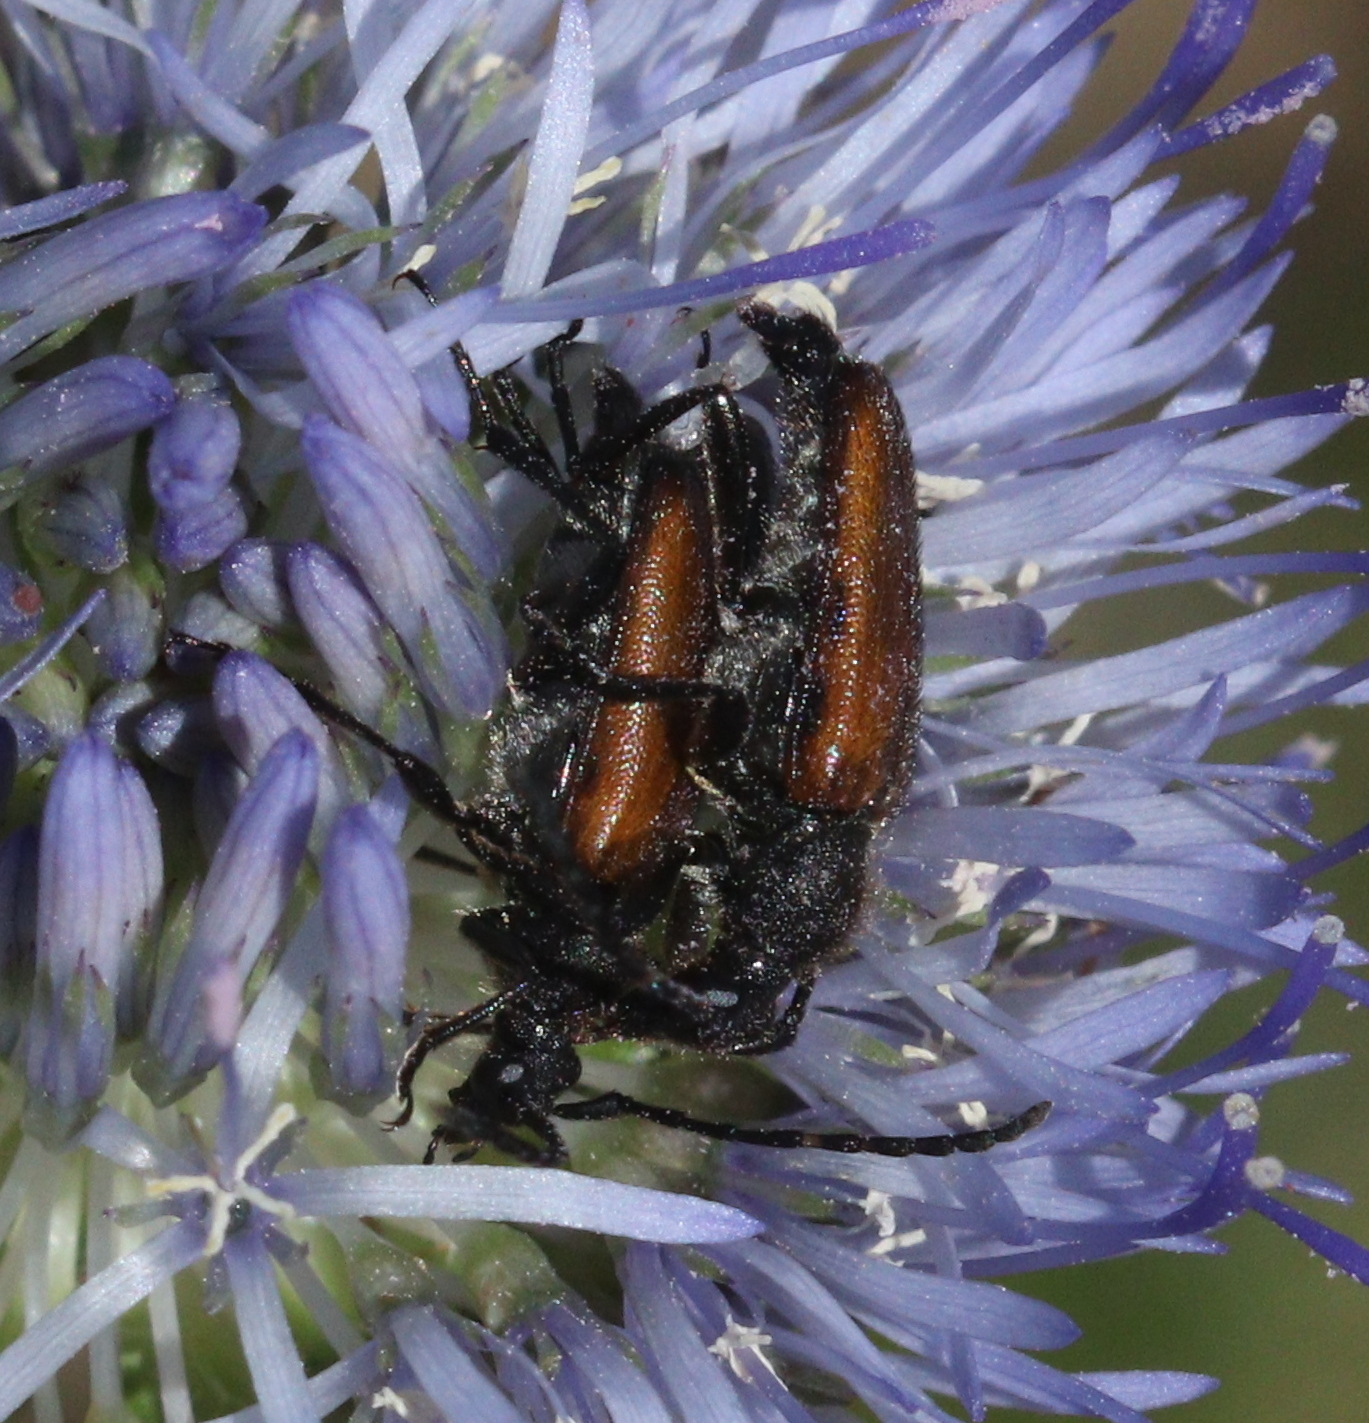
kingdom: Animalia
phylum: Arthropoda
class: Insecta
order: Coleoptera
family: Cerambycidae
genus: Paracorymbia
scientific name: Paracorymbia maculicornis
